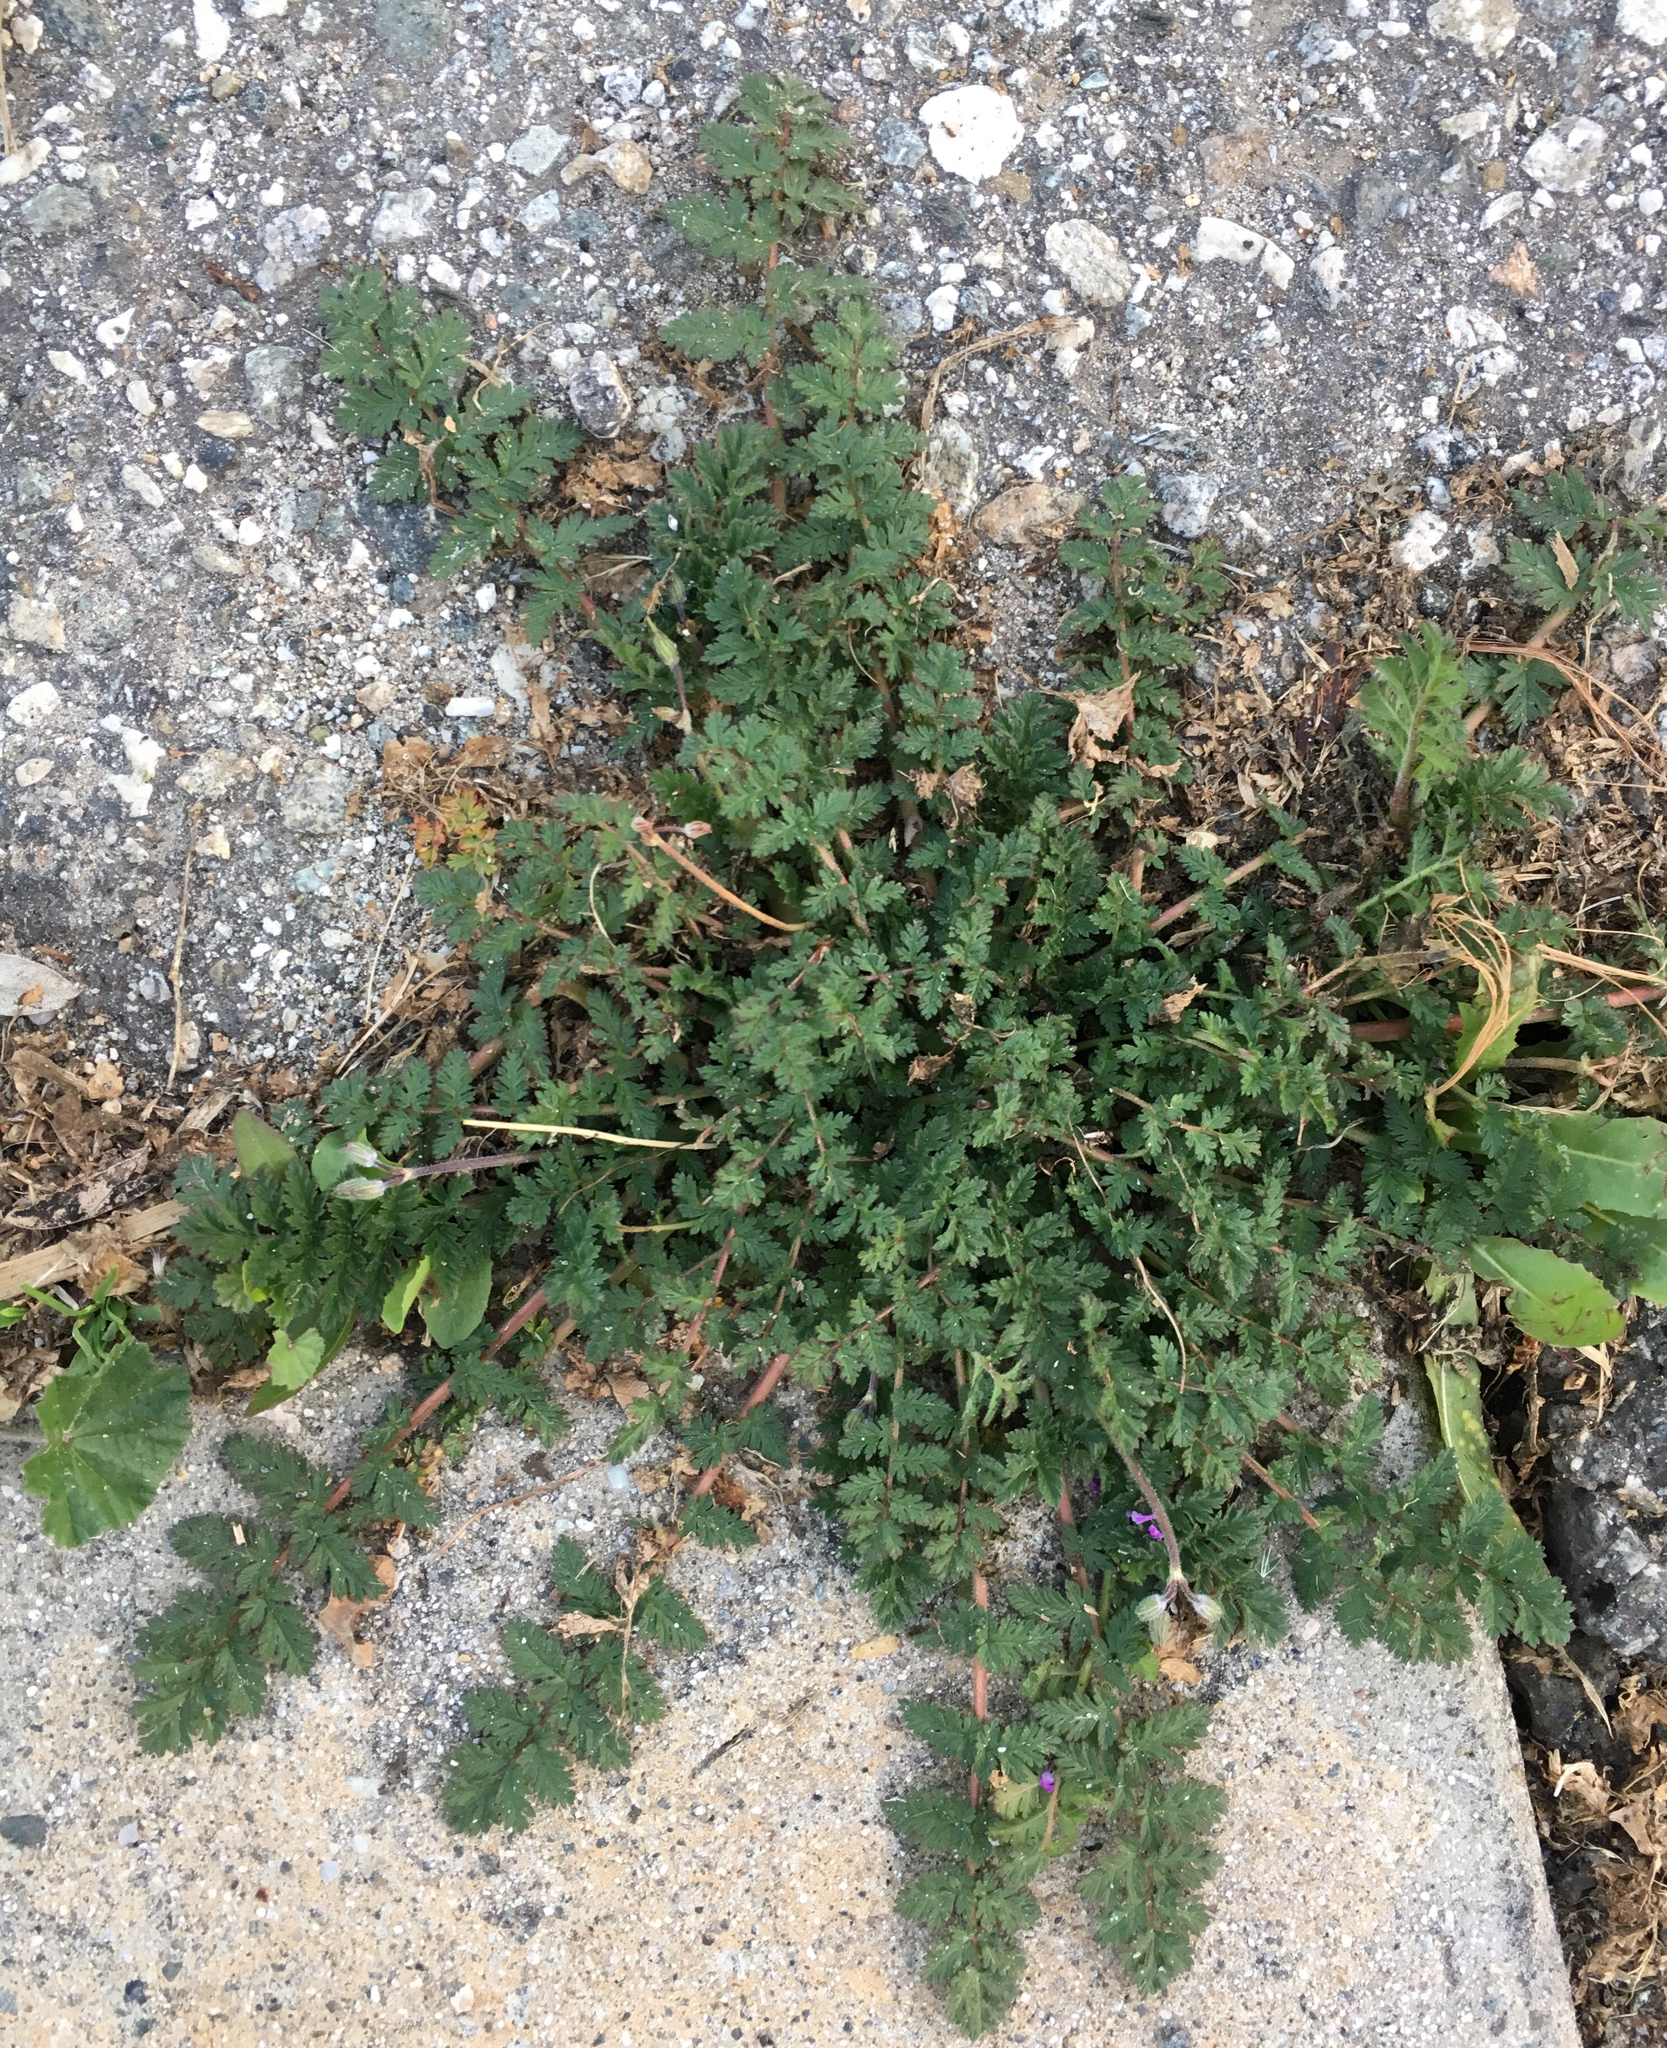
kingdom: Plantae
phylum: Tracheophyta
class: Magnoliopsida
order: Geraniales
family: Geraniaceae
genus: Erodium
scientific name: Erodium cicutarium
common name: Common stork's-bill
